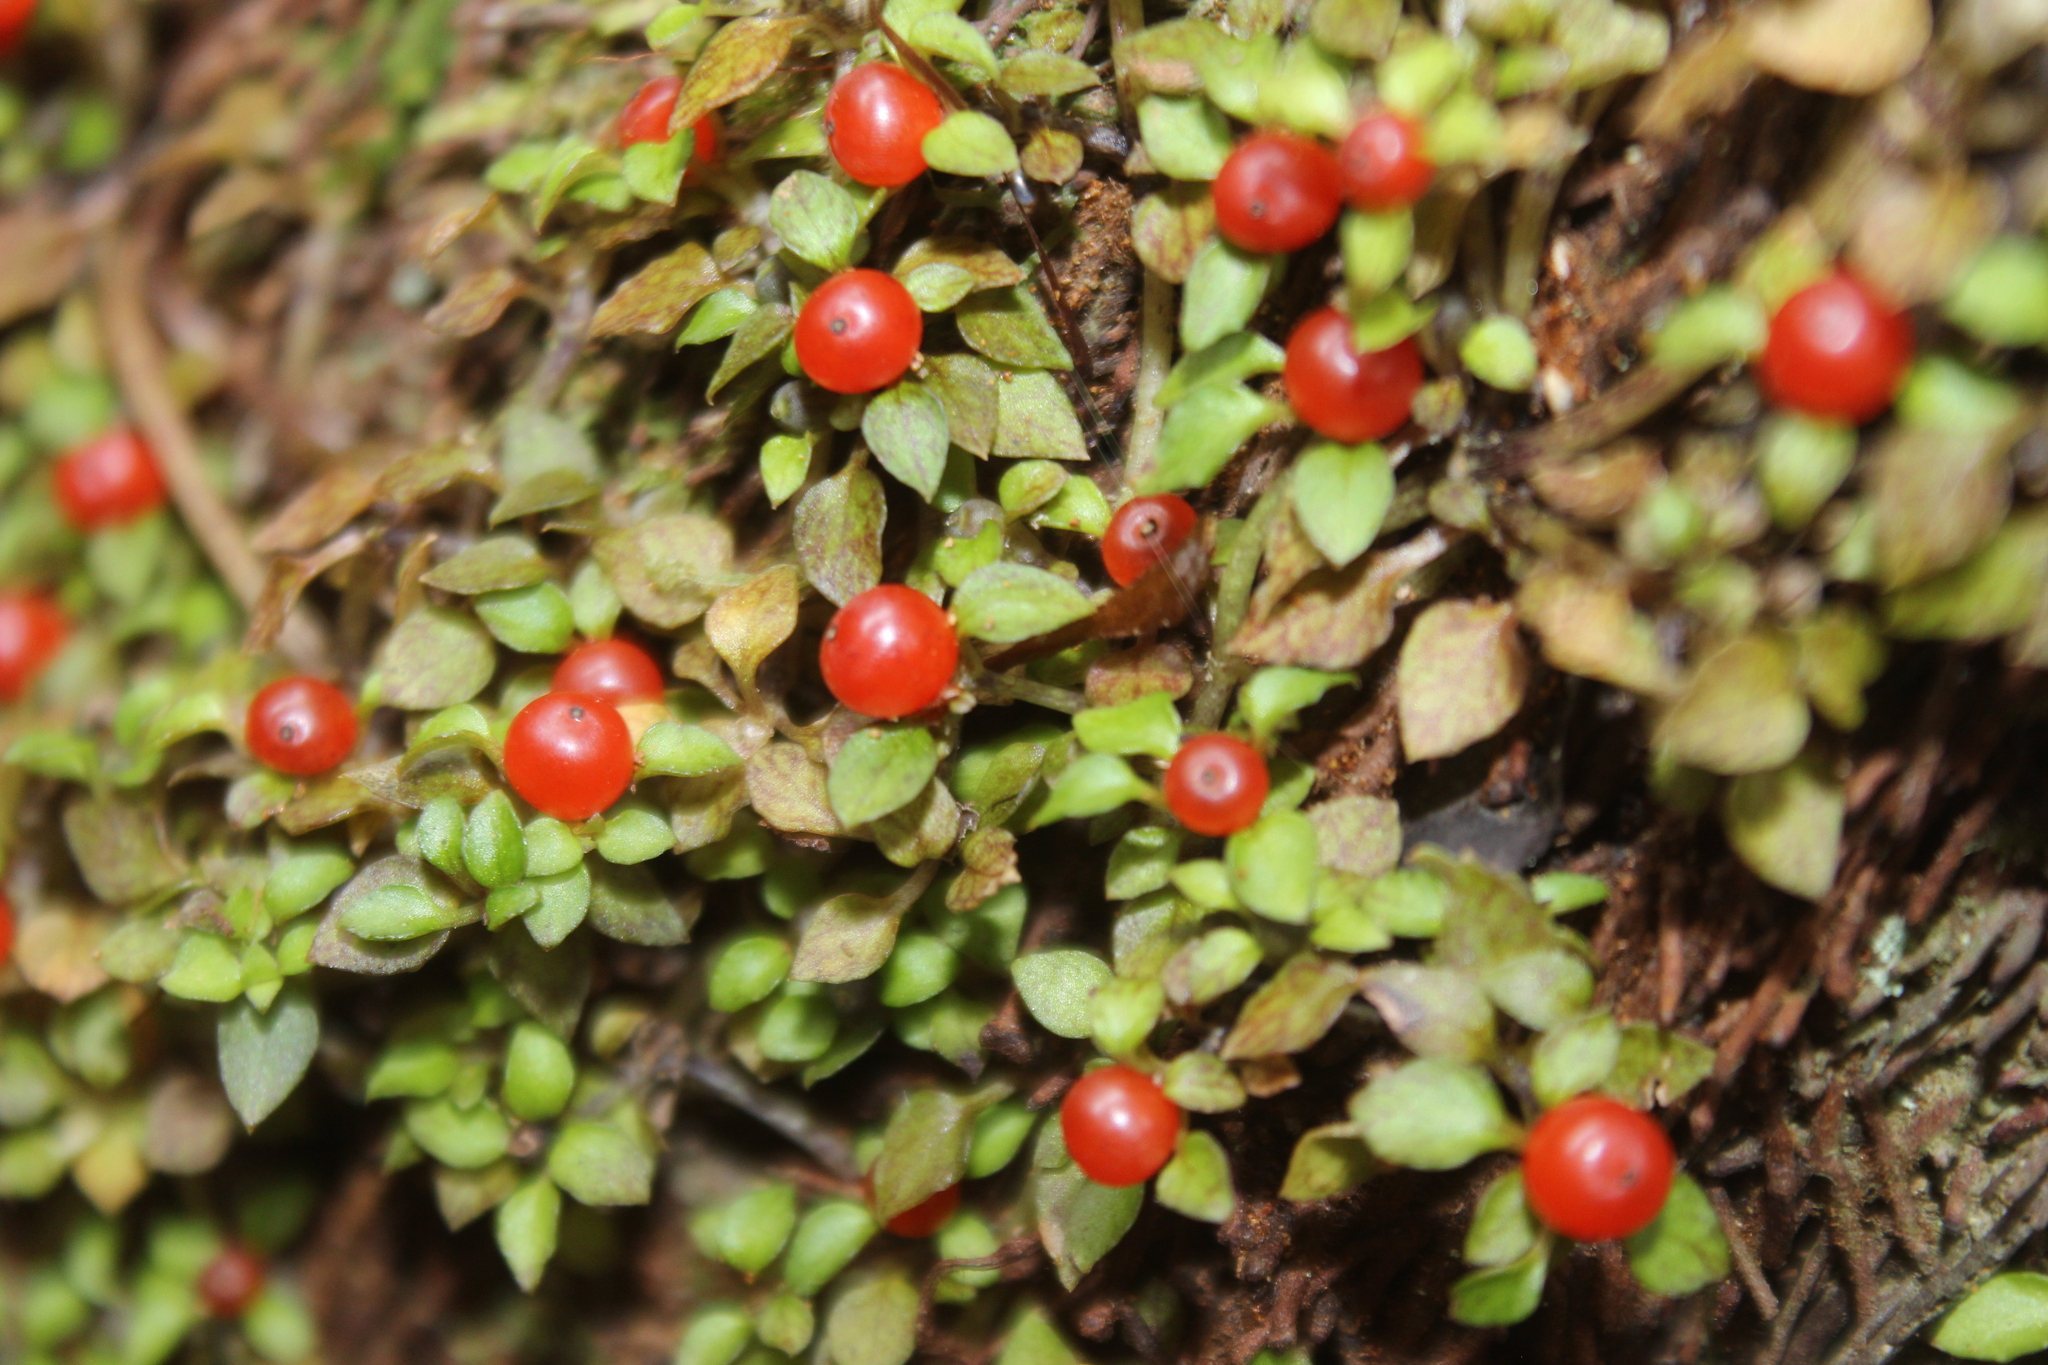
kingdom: Plantae
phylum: Tracheophyta
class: Magnoliopsida
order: Gentianales
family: Rubiaceae
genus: Nertera
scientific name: Nertera granadensis
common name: Beadplant
